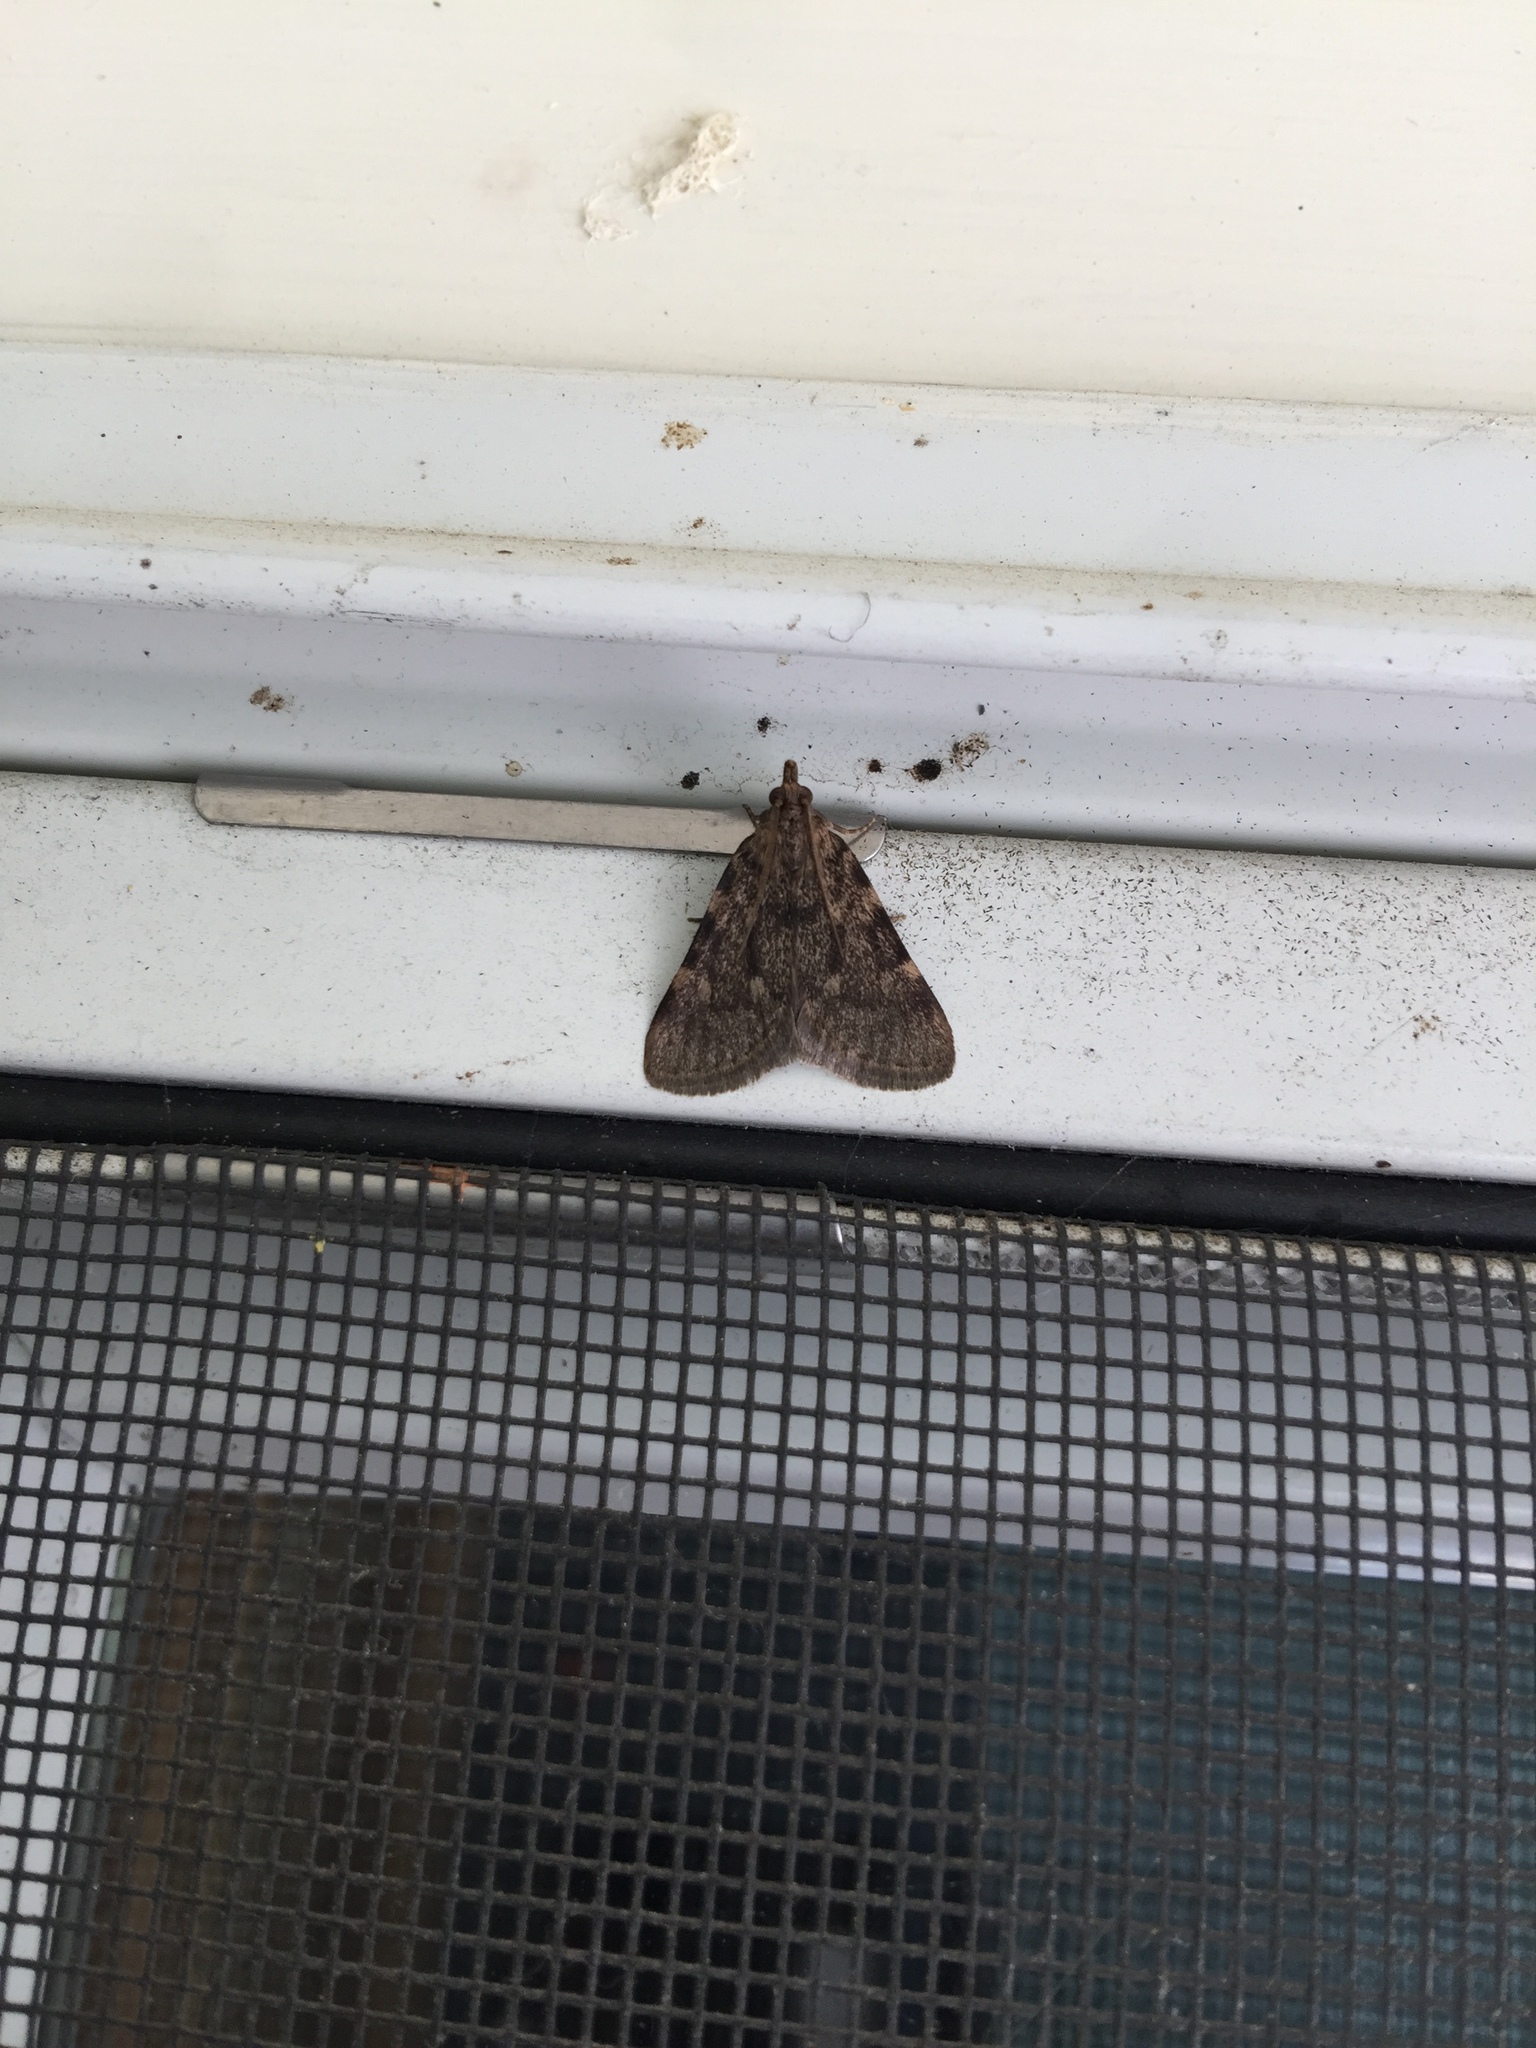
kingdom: Animalia
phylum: Arthropoda
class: Insecta
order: Lepidoptera
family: Pyralidae
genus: Aglossa
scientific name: Aglossa pinguinalis
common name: Large tabby
